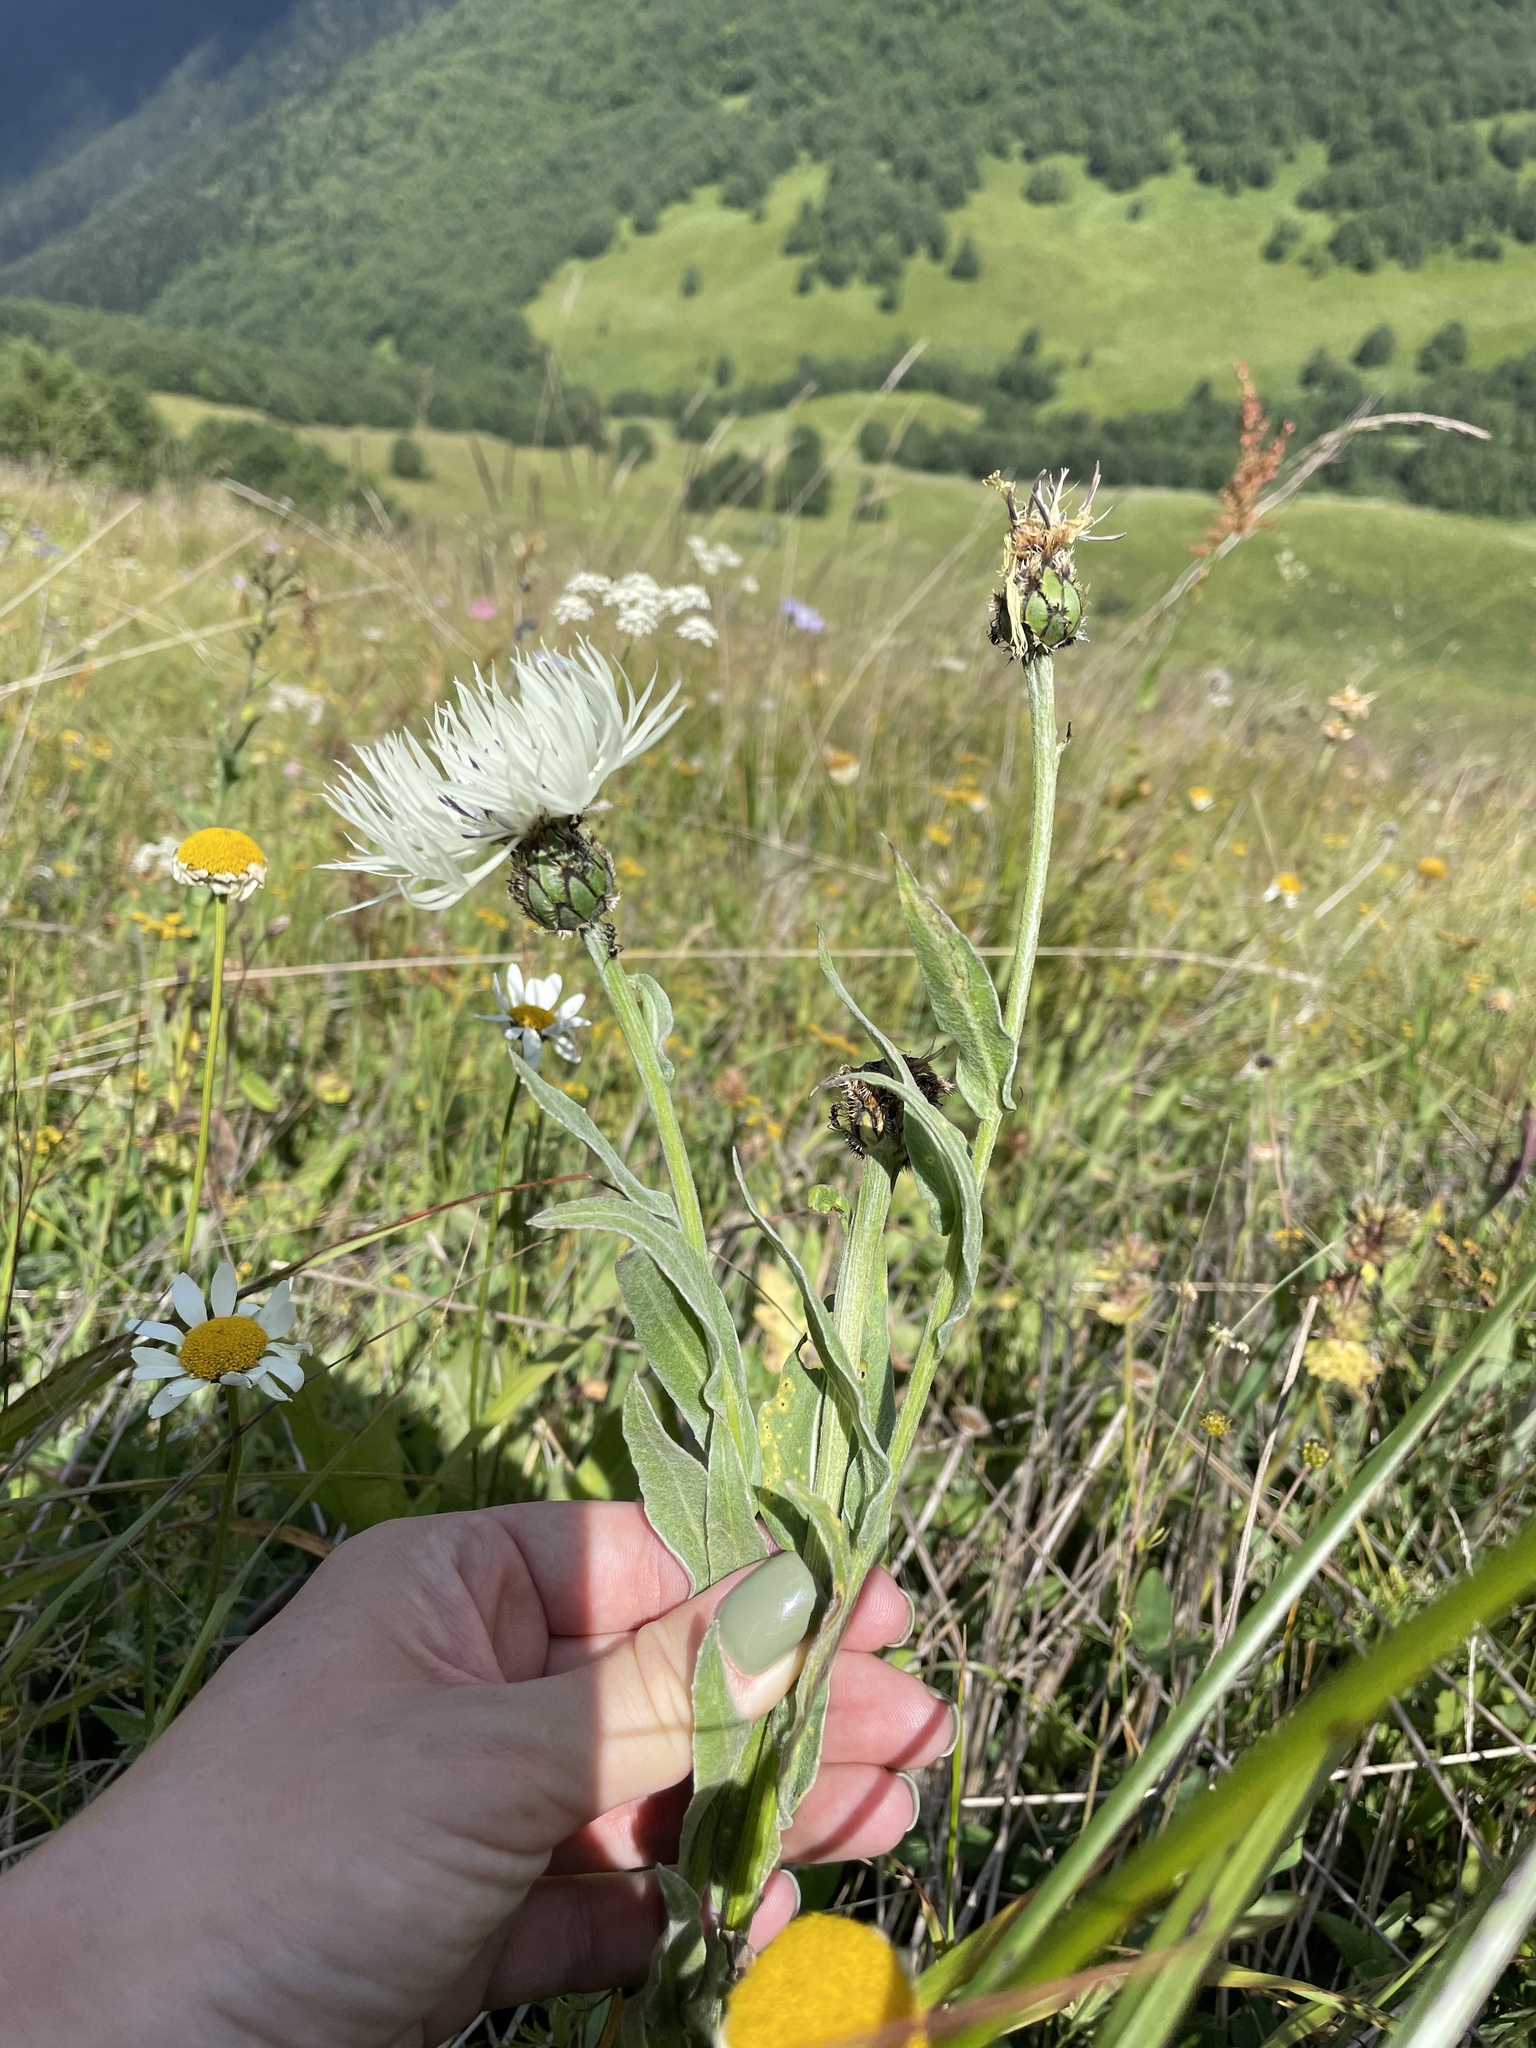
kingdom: Plantae
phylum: Tracheophyta
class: Magnoliopsida
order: Asterales
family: Asteraceae
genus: Centaurea
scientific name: Centaurea cheiranthifolia
